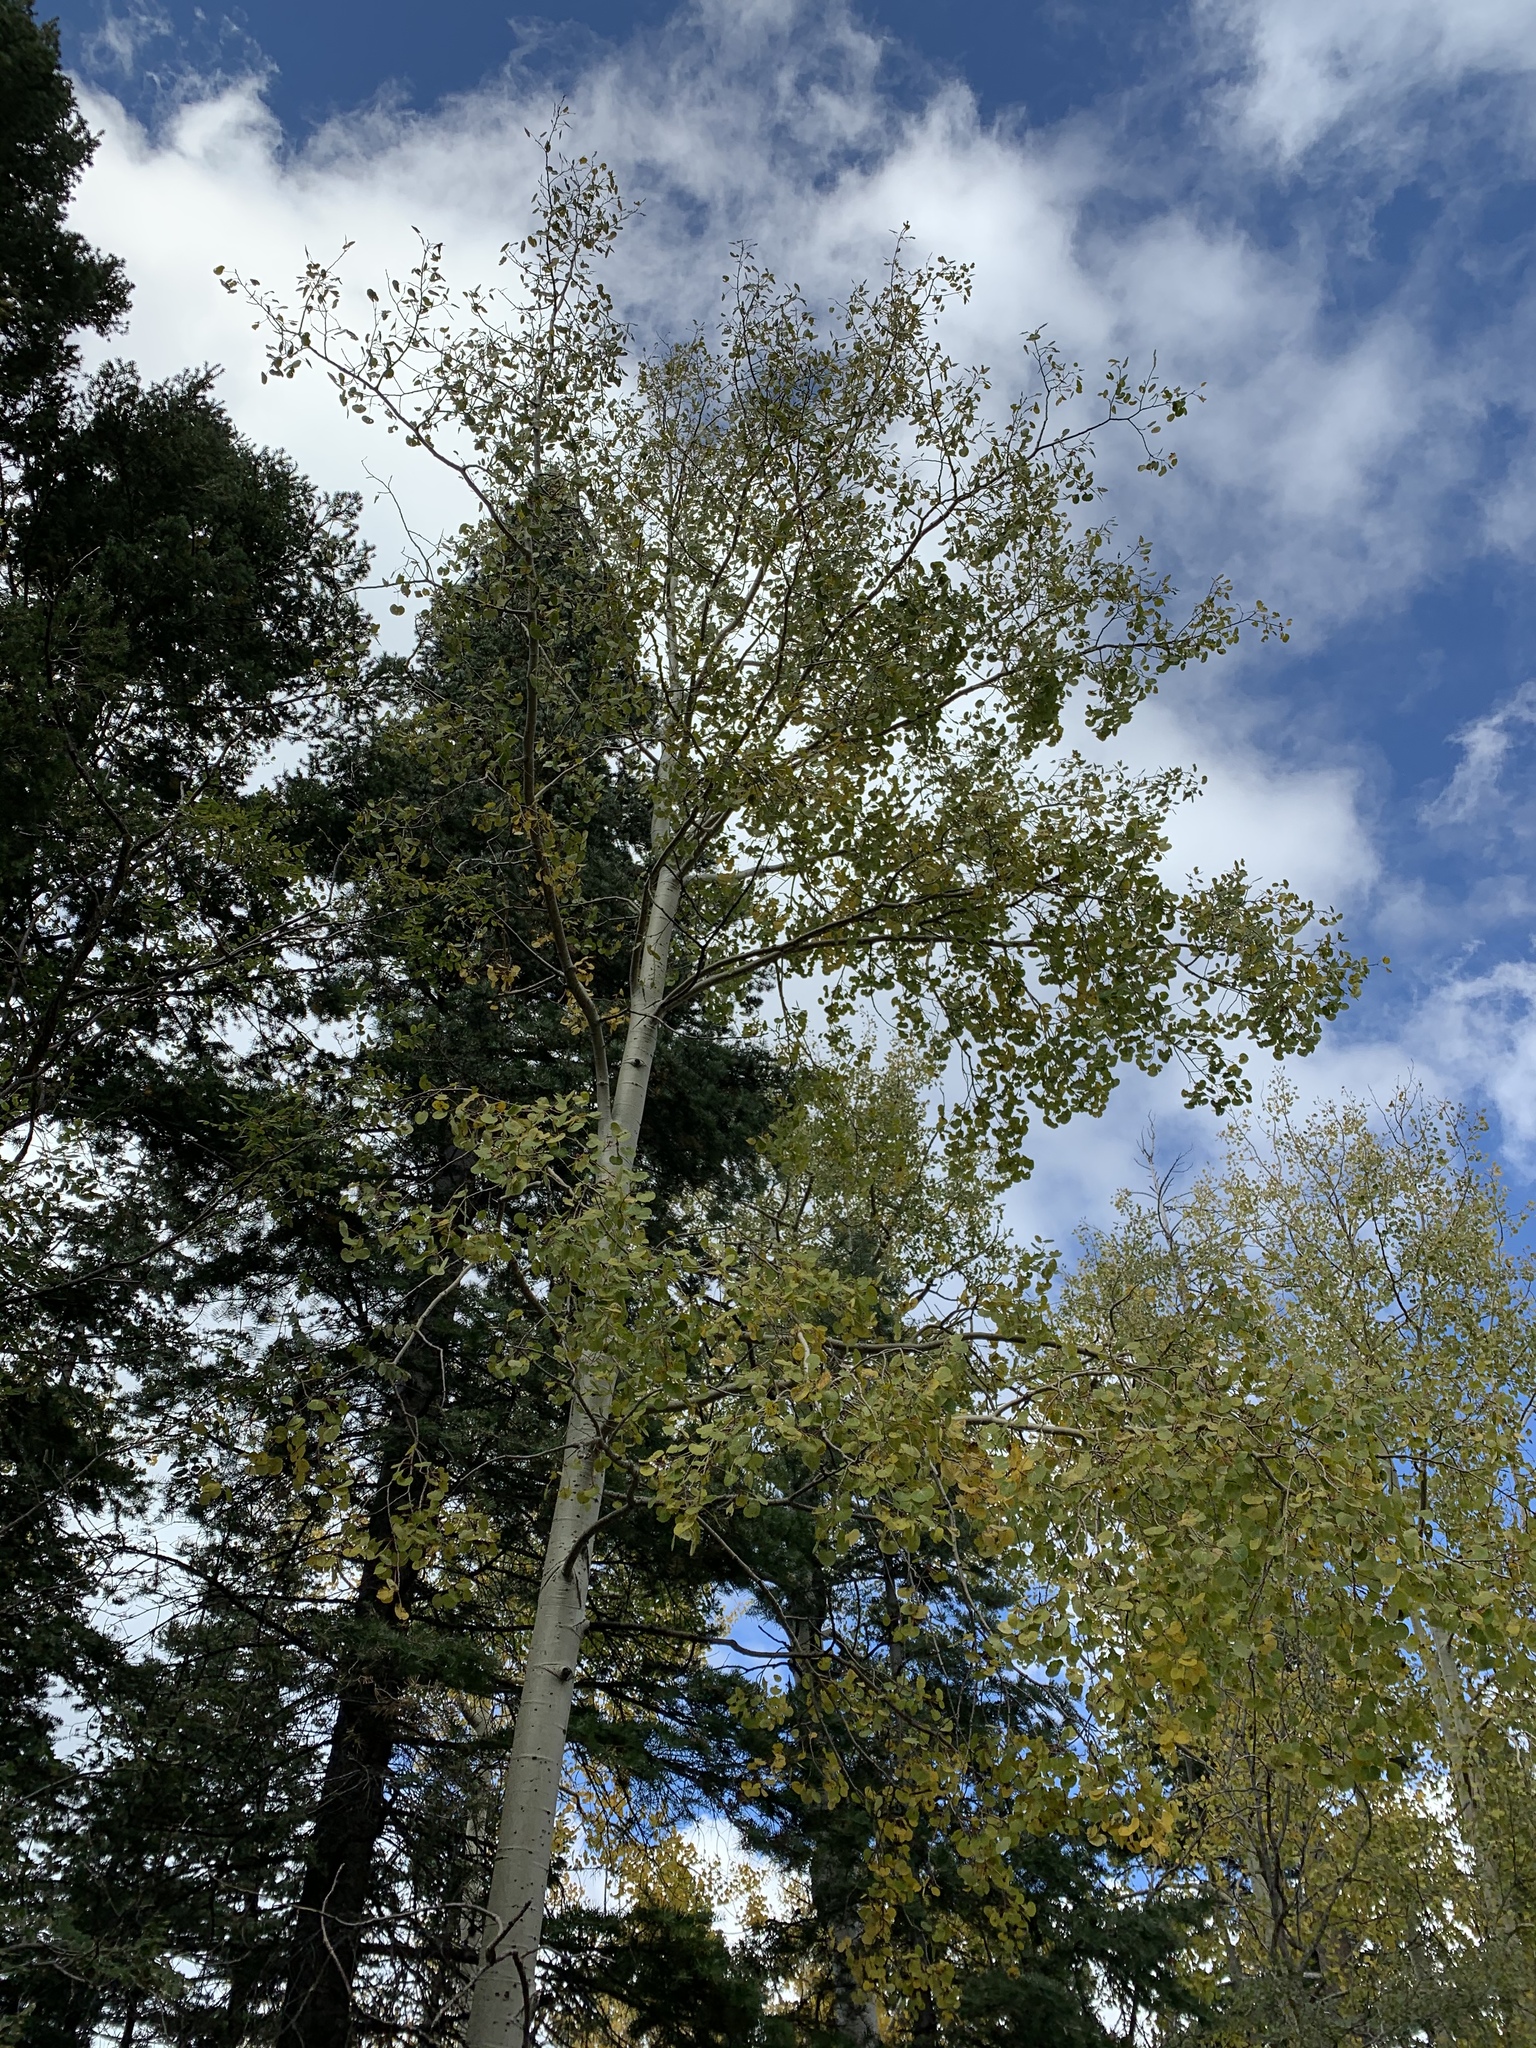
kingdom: Plantae
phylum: Tracheophyta
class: Magnoliopsida
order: Malpighiales
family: Salicaceae
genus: Populus
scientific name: Populus tremuloides
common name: Quaking aspen
